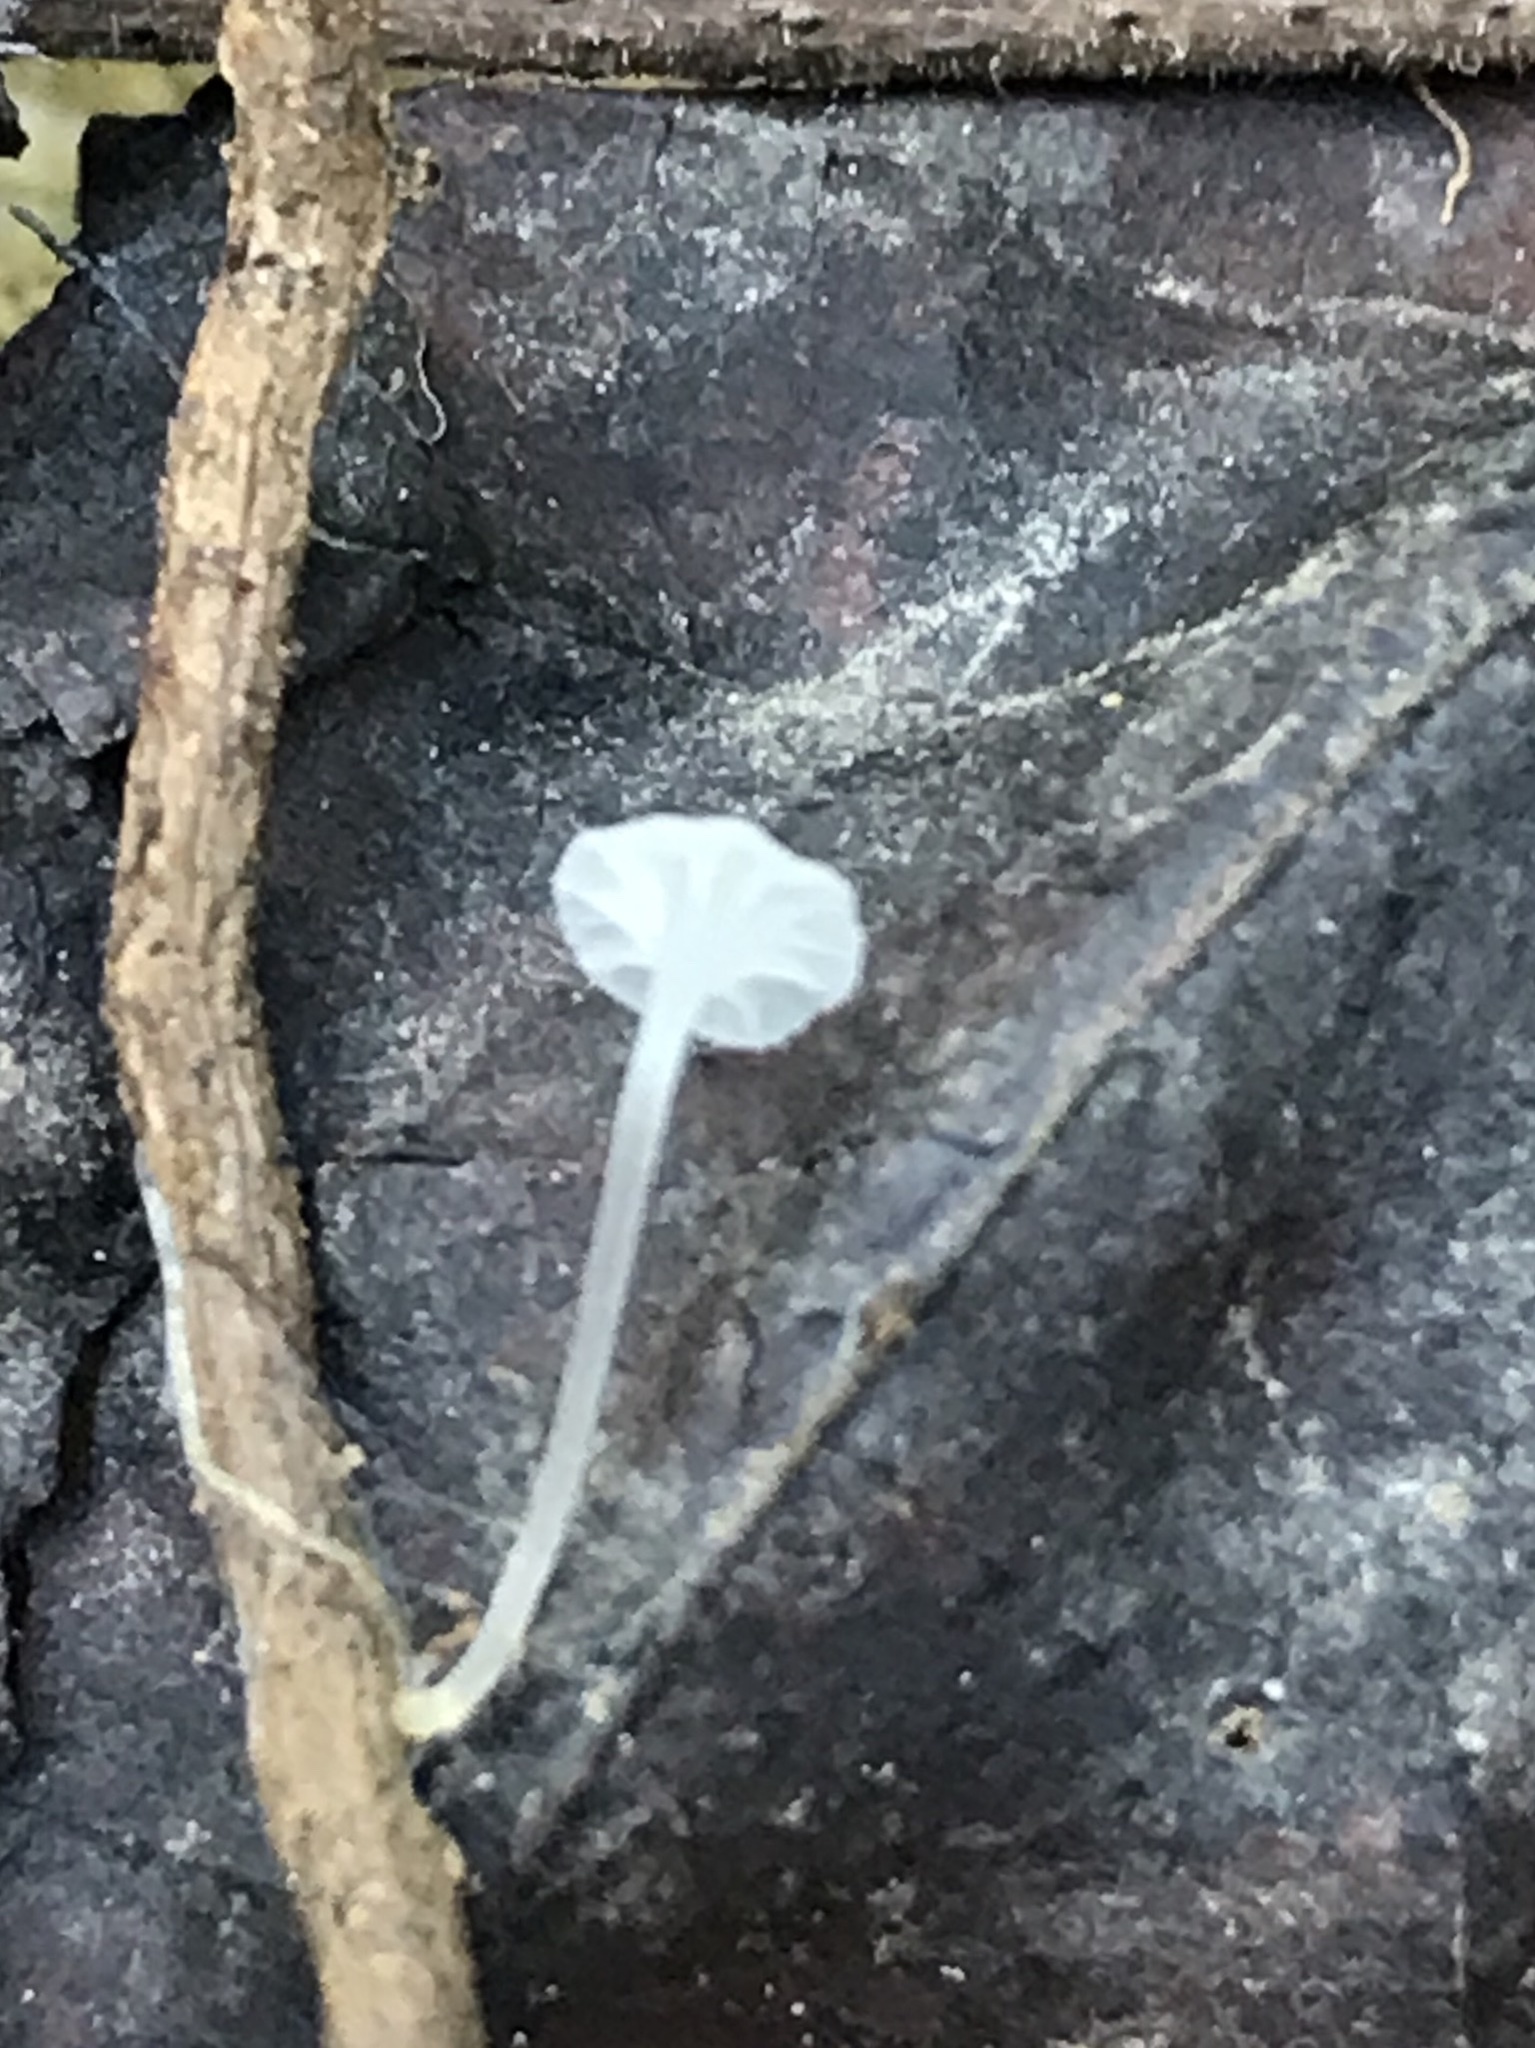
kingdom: Fungi
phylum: Basidiomycota
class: Agaricomycetes
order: Agaricales
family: Mycenaceae
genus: Hemimycena
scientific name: Hemimycena
